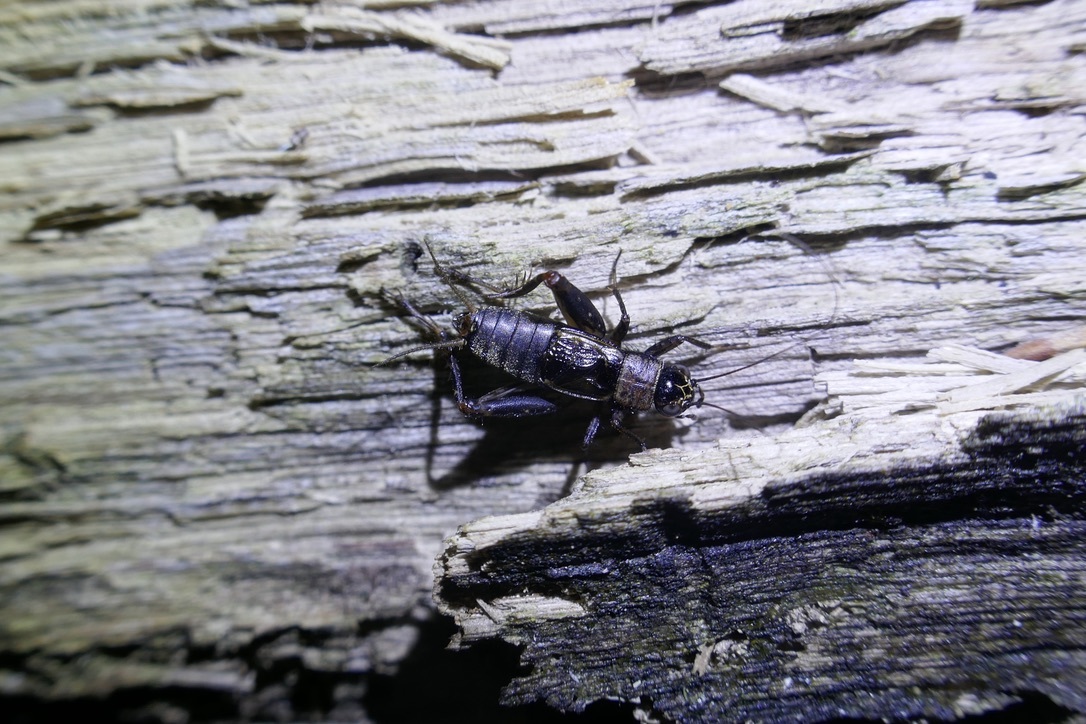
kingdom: Animalia
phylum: Arthropoda
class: Insecta
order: Orthoptera
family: Trigonidiidae
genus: Nemobius
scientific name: Nemobius sylvestris
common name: Wood-cricket
